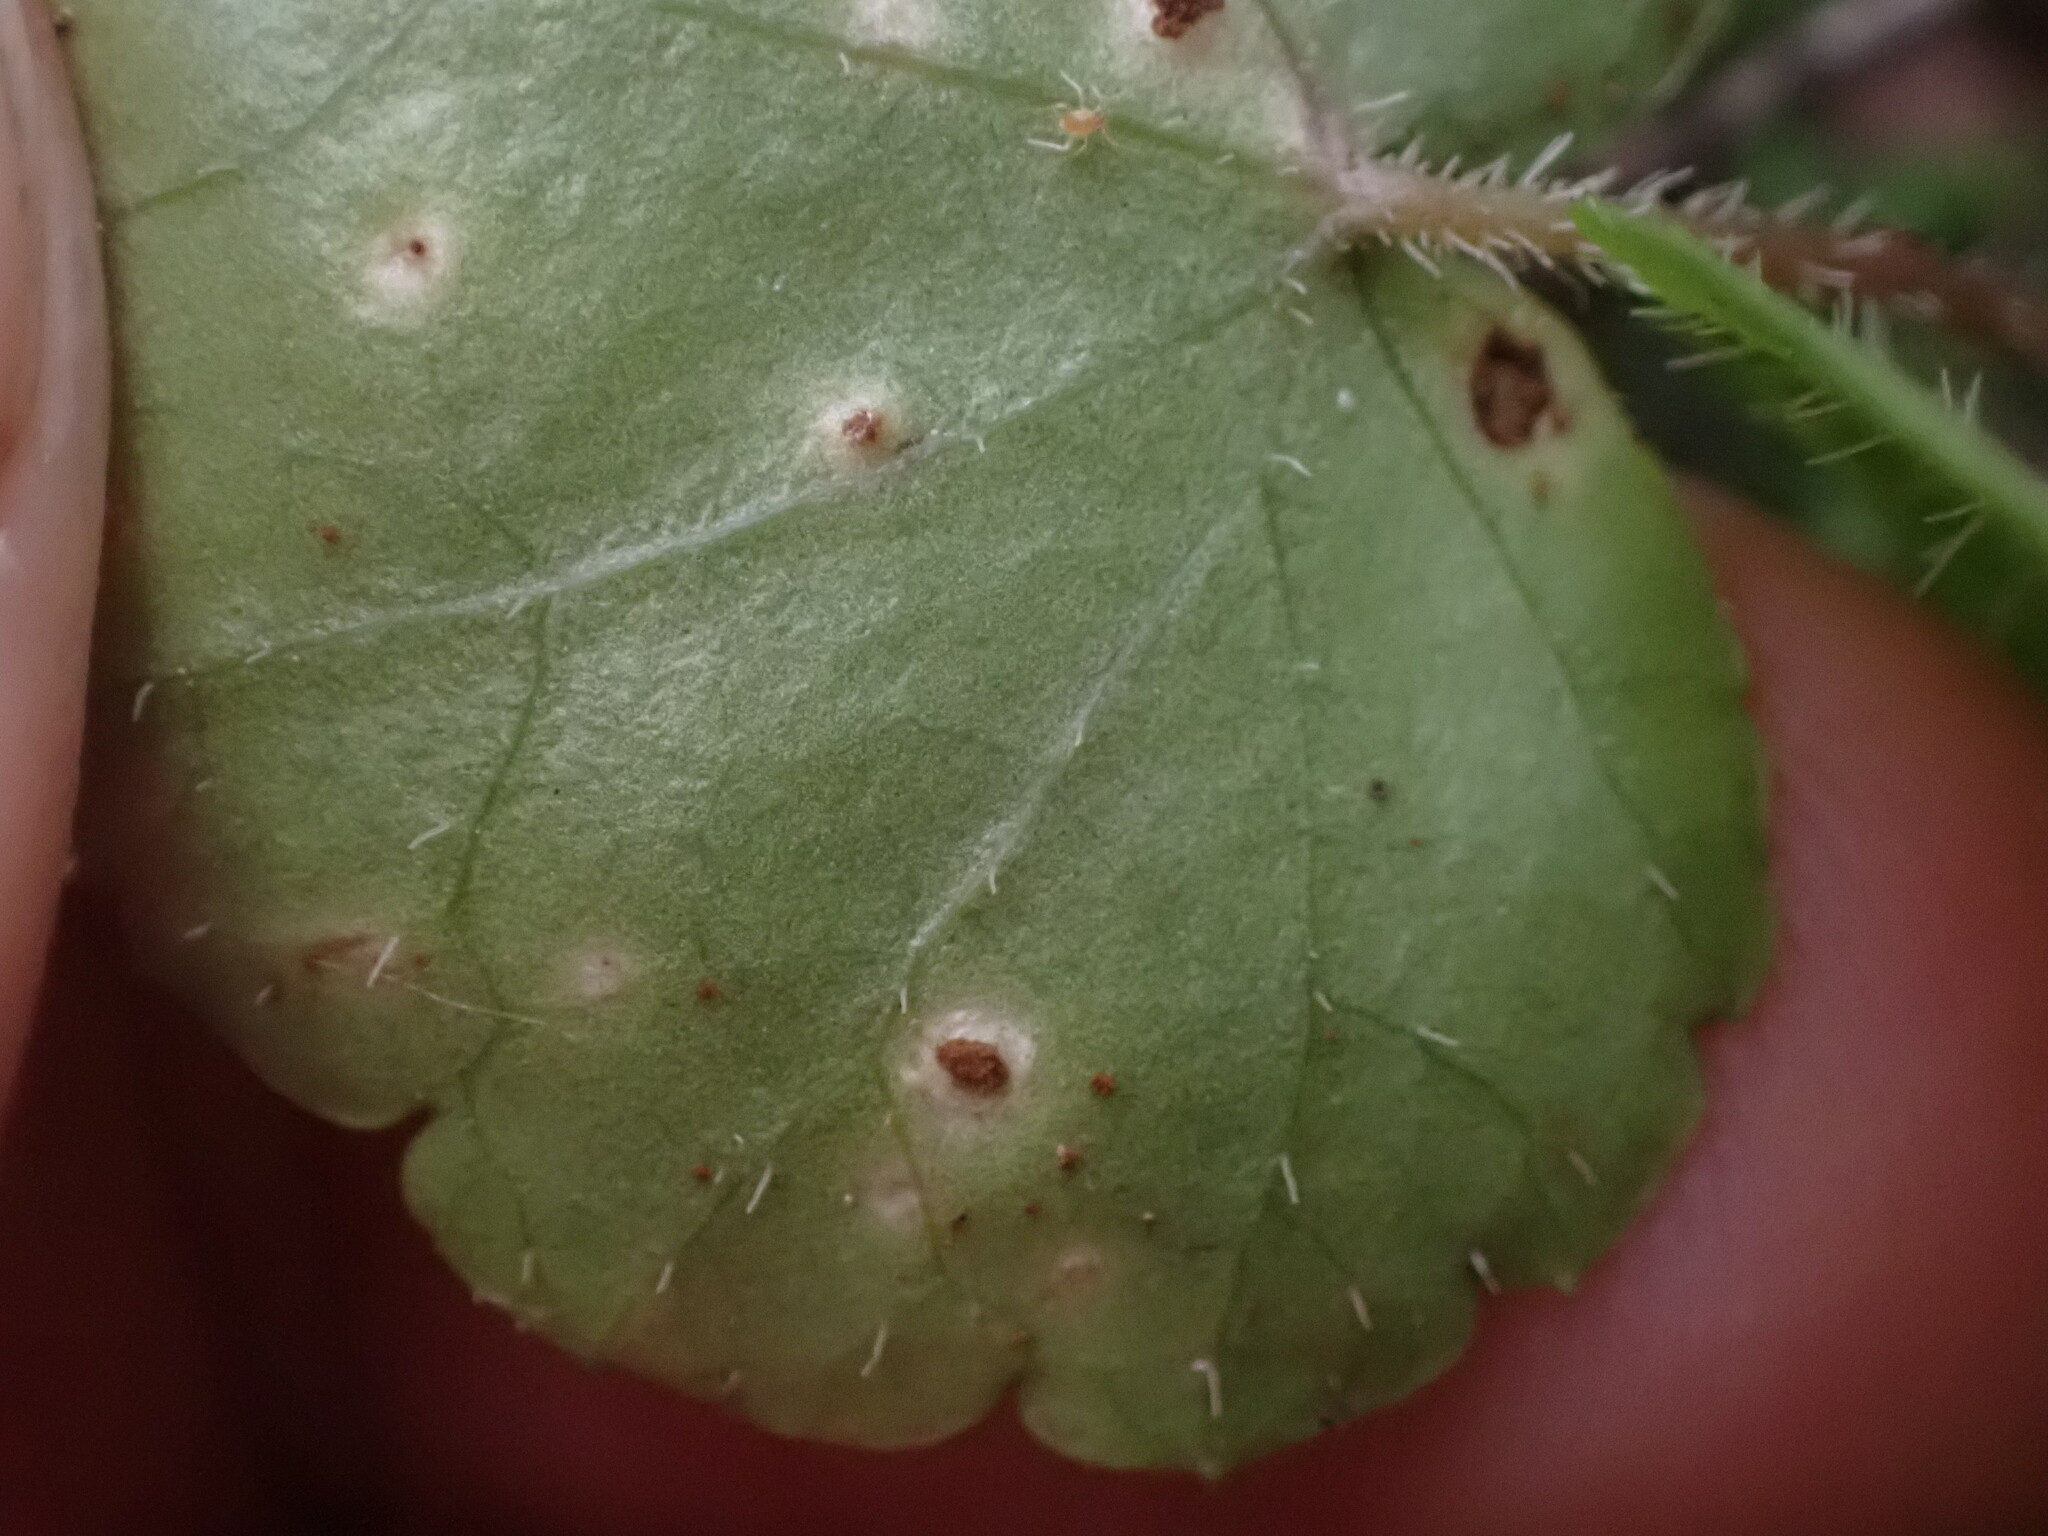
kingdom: Plantae
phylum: Tracheophyta
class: Magnoliopsida
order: Saxifragales
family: Saxifragaceae
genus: Mitella
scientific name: Mitella nuda
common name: Bare-stemmed bishop's-cap
